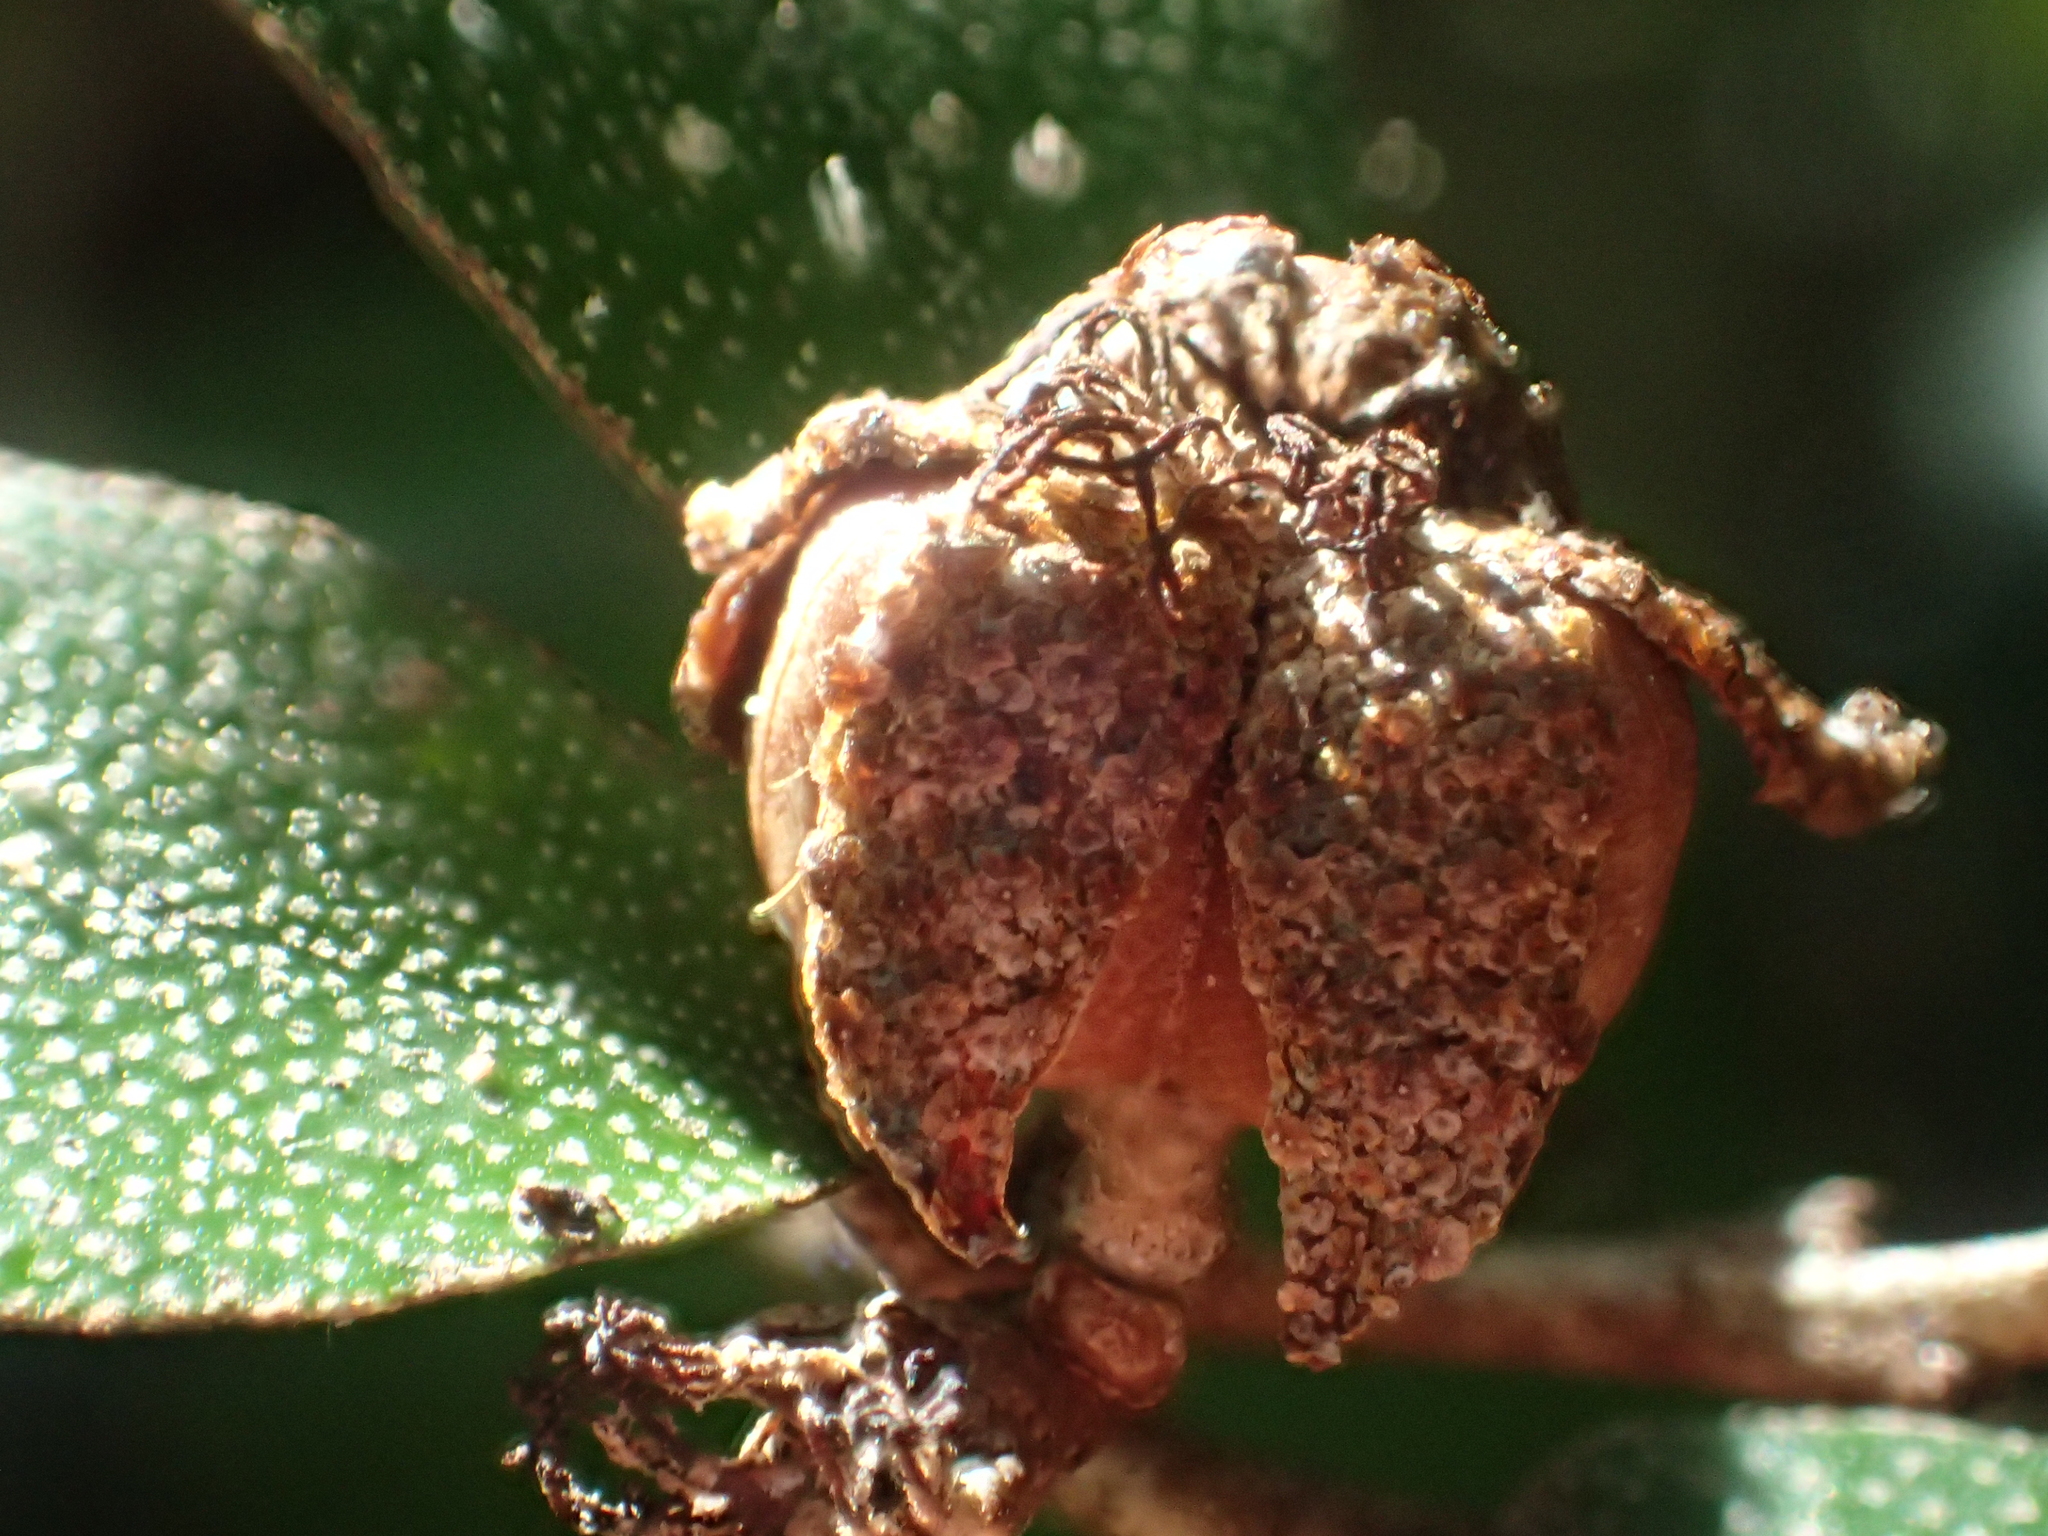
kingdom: Plantae
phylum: Tracheophyta
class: Magnoliopsida
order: Malpighiales
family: Euphorbiaceae
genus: Croton
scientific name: Croton cascarilloides
